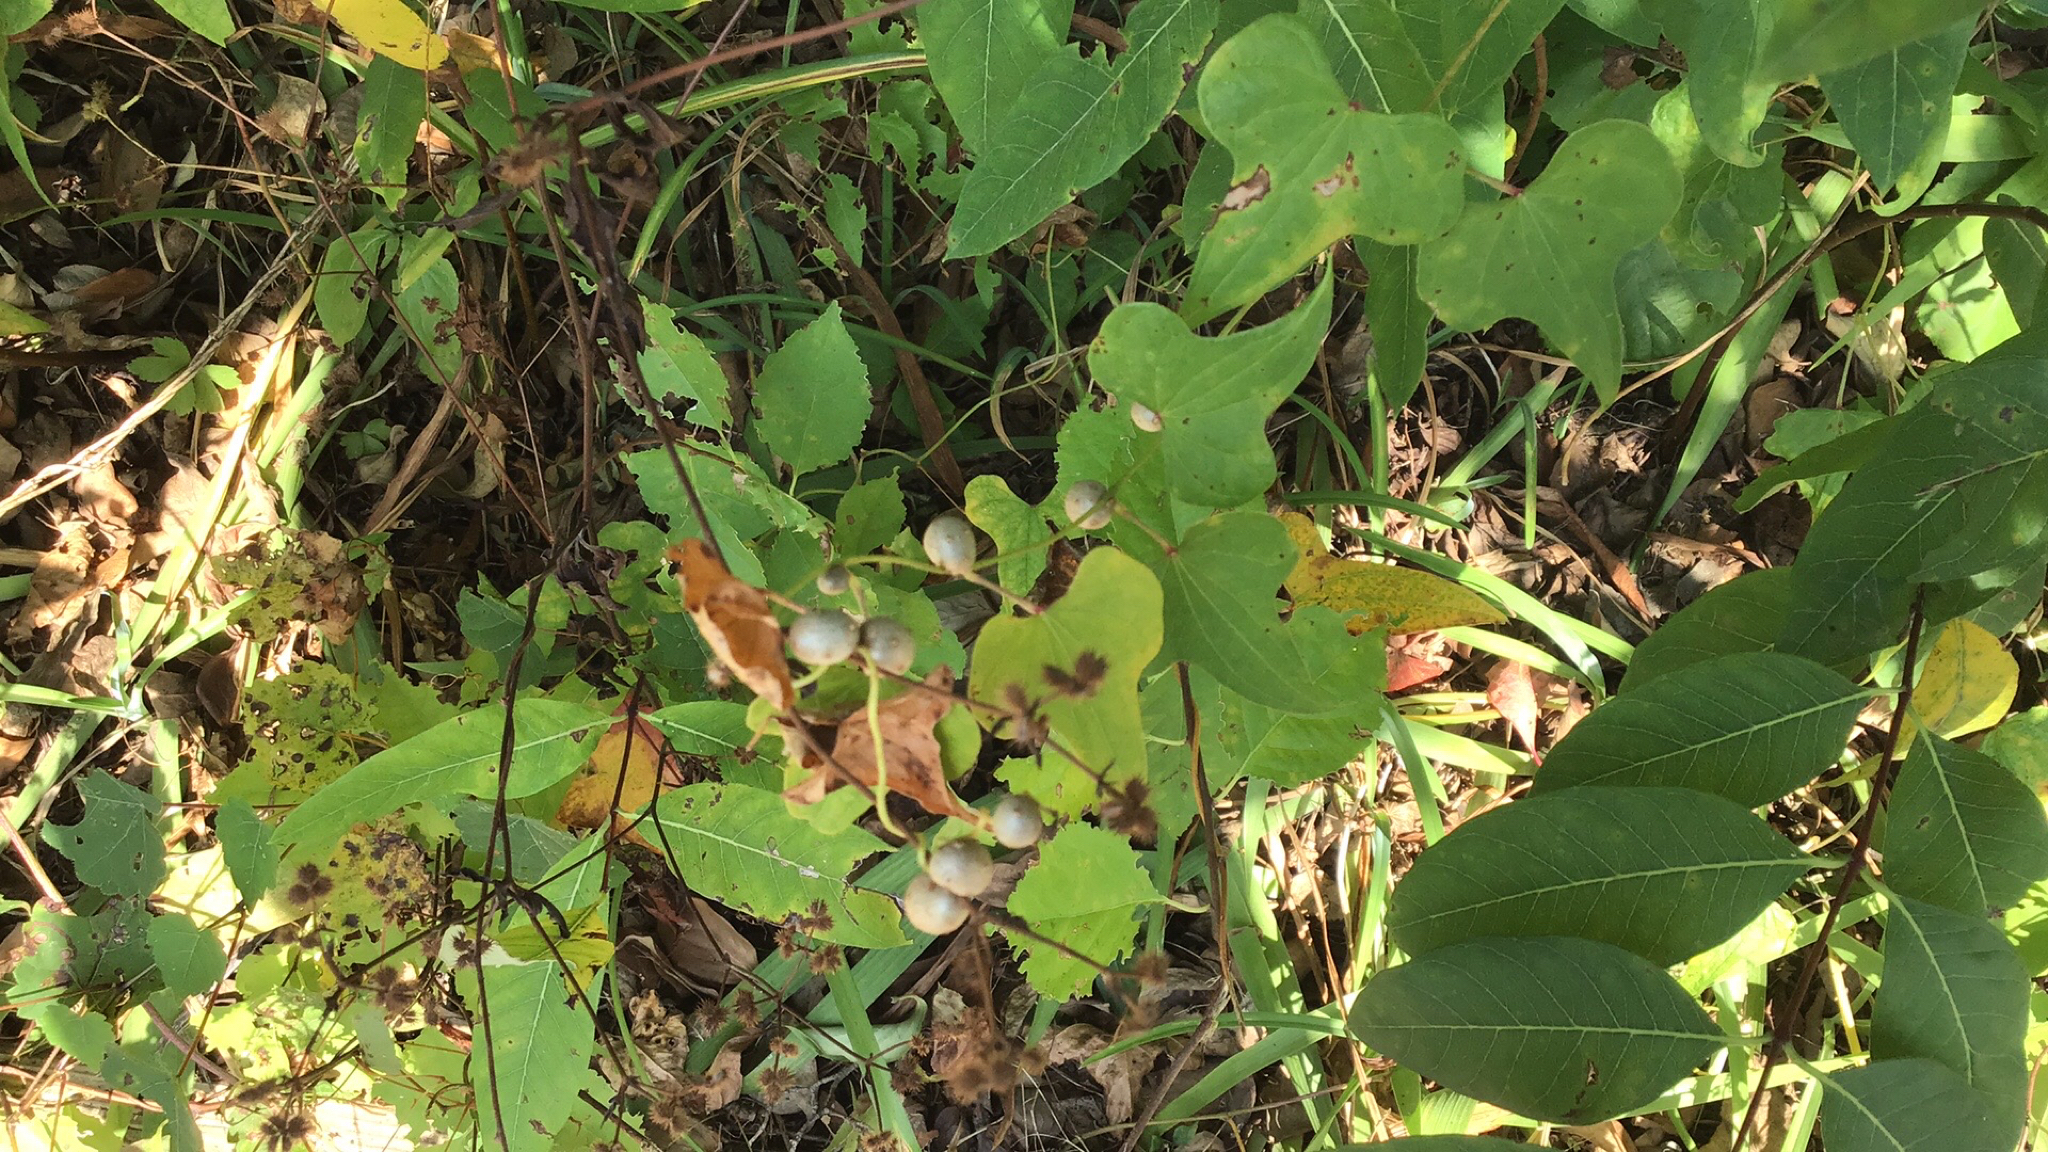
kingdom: Plantae
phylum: Tracheophyta
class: Liliopsida
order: Dioscoreales
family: Dioscoreaceae
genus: Dioscorea
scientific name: Dioscorea polystachya
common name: Chinese yam
